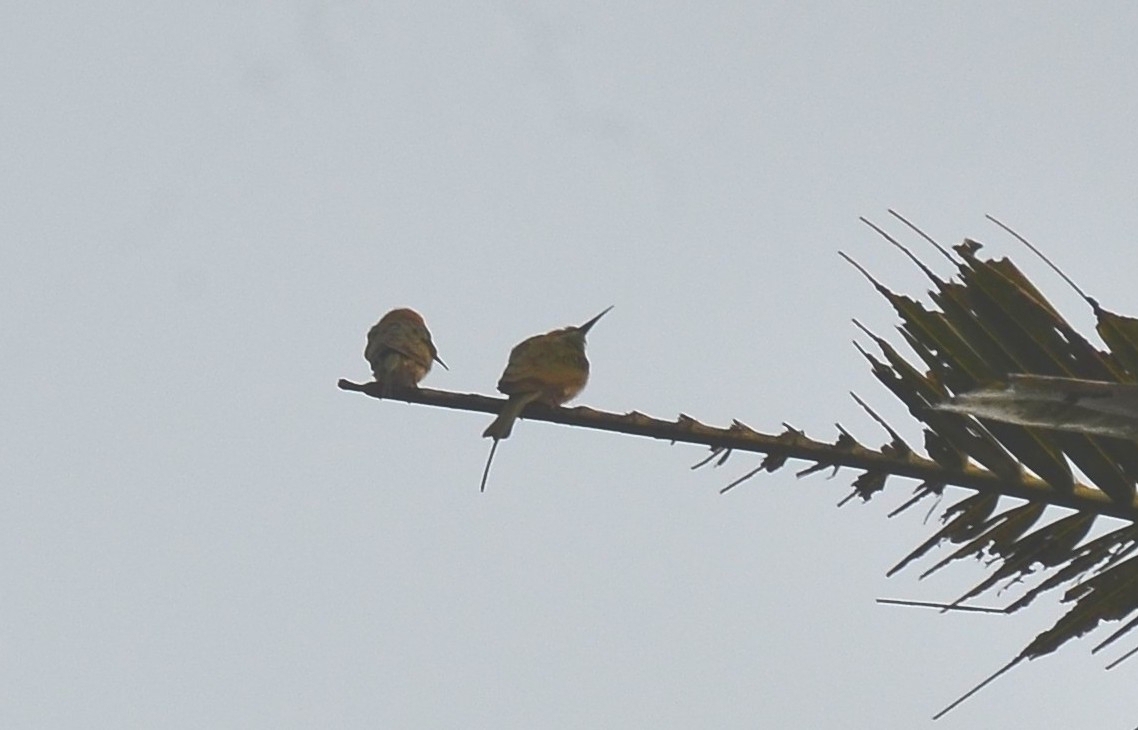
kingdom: Animalia
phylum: Chordata
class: Aves
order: Coraciiformes
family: Meropidae
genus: Merops
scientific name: Merops orientalis
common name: Green bee-eater
